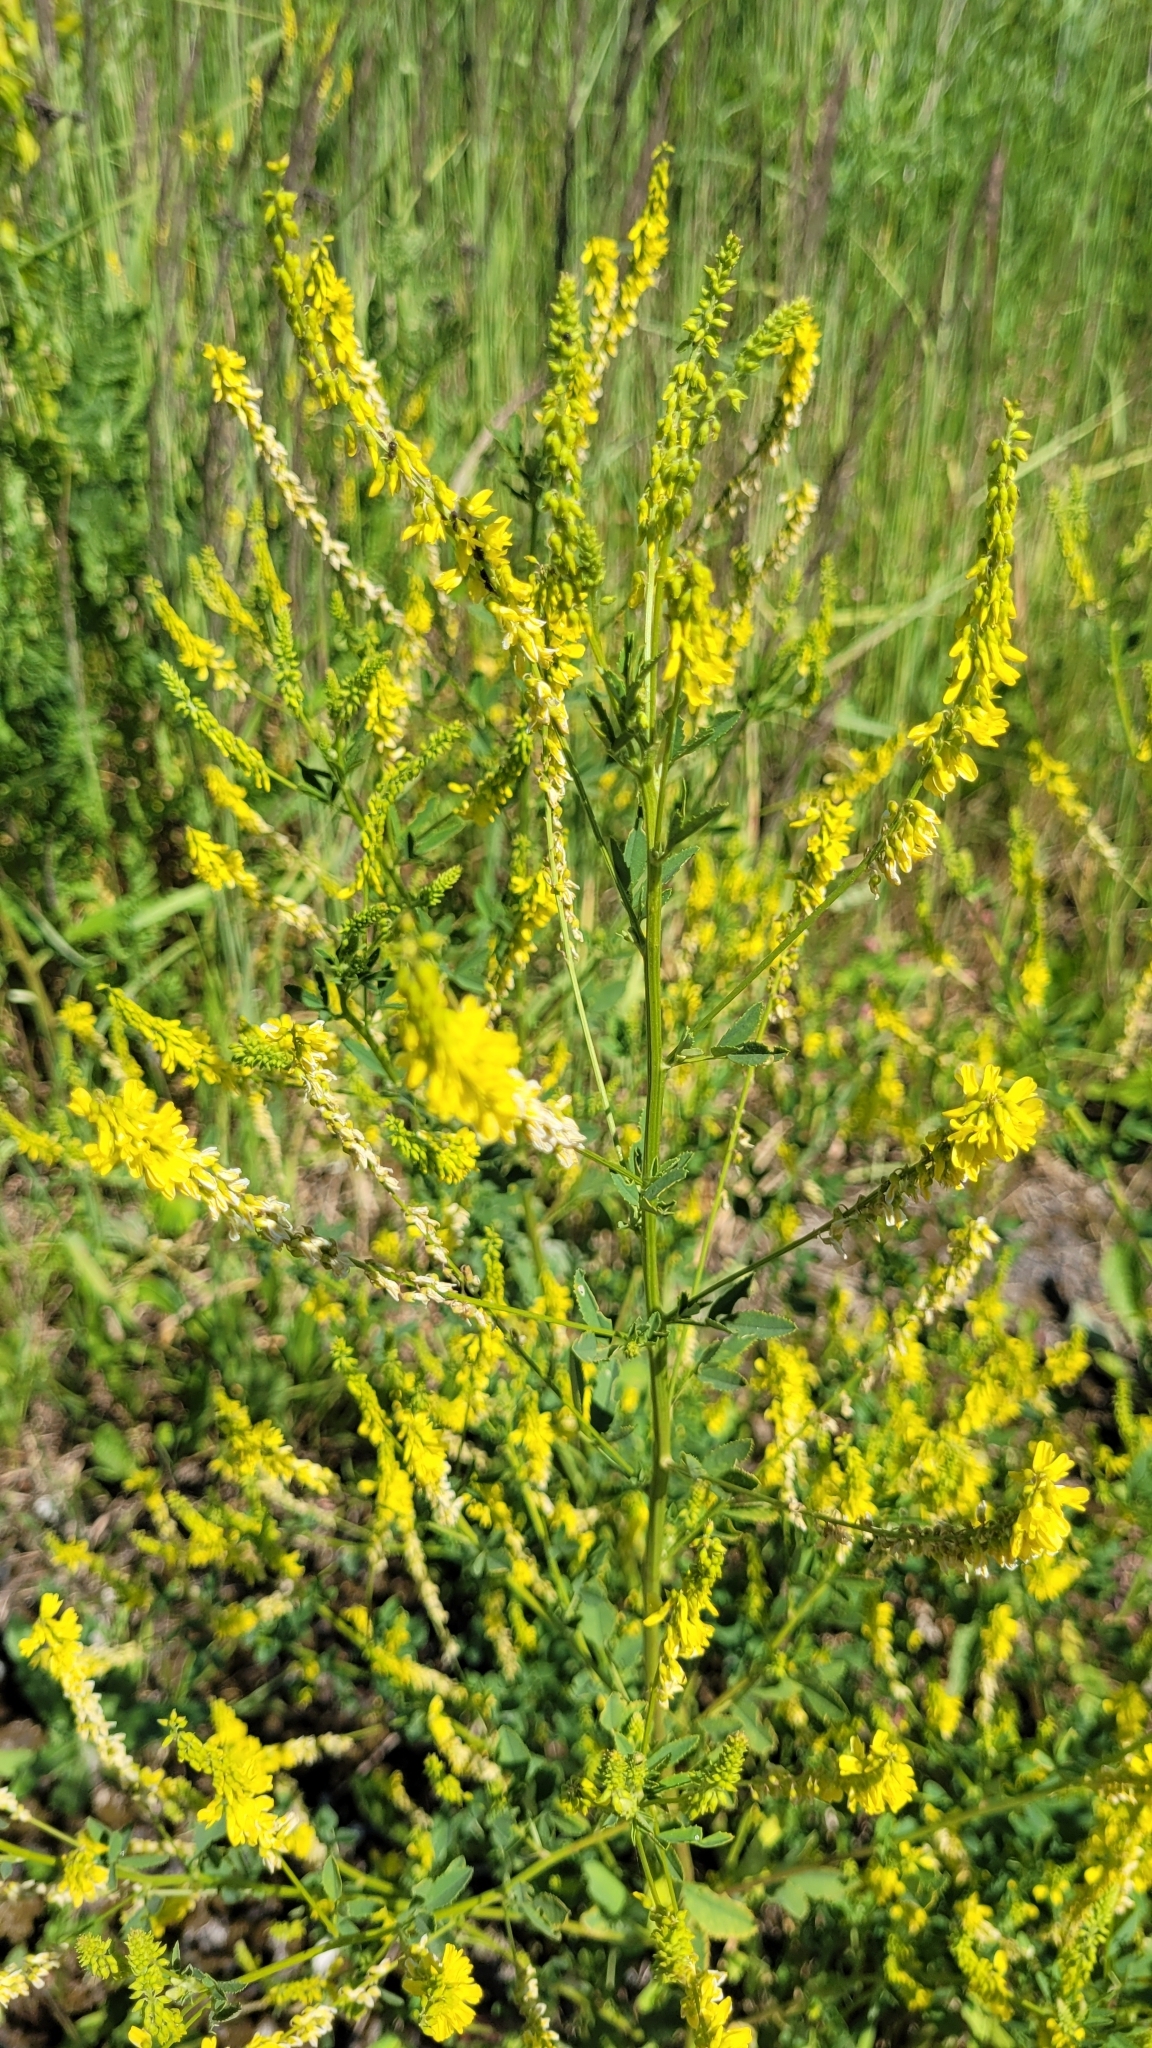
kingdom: Plantae
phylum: Tracheophyta
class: Magnoliopsida
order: Fabales
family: Fabaceae
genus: Melilotus
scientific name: Melilotus officinalis
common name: Sweetclover
